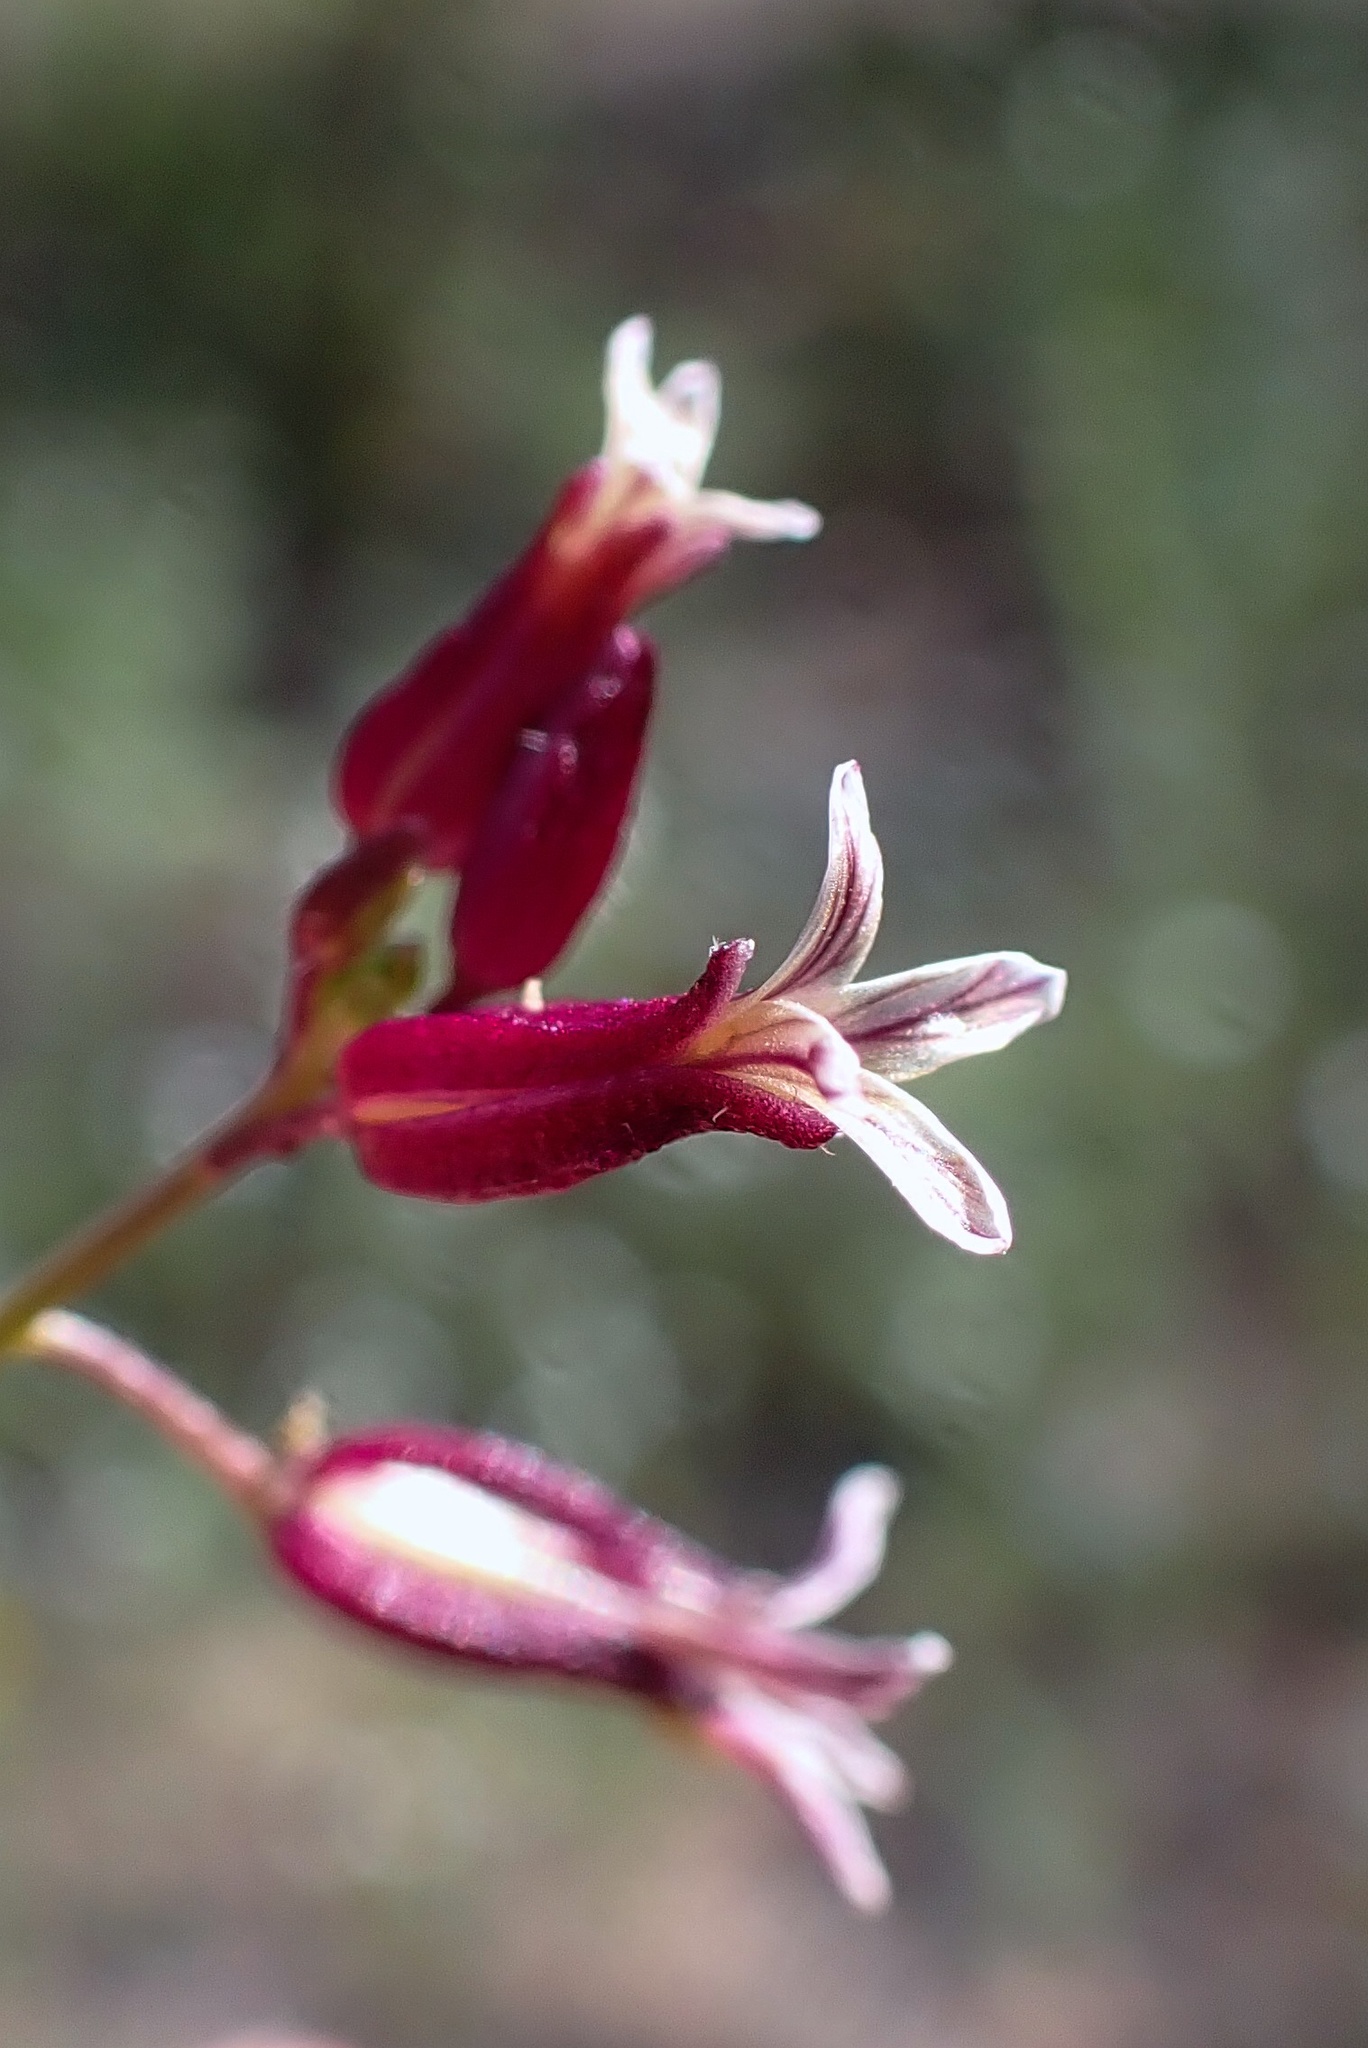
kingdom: Plantae
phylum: Tracheophyta
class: Magnoliopsida
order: Brassicales
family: Brassicaceae
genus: Streptanthus
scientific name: Streptanthus heterophyllus
